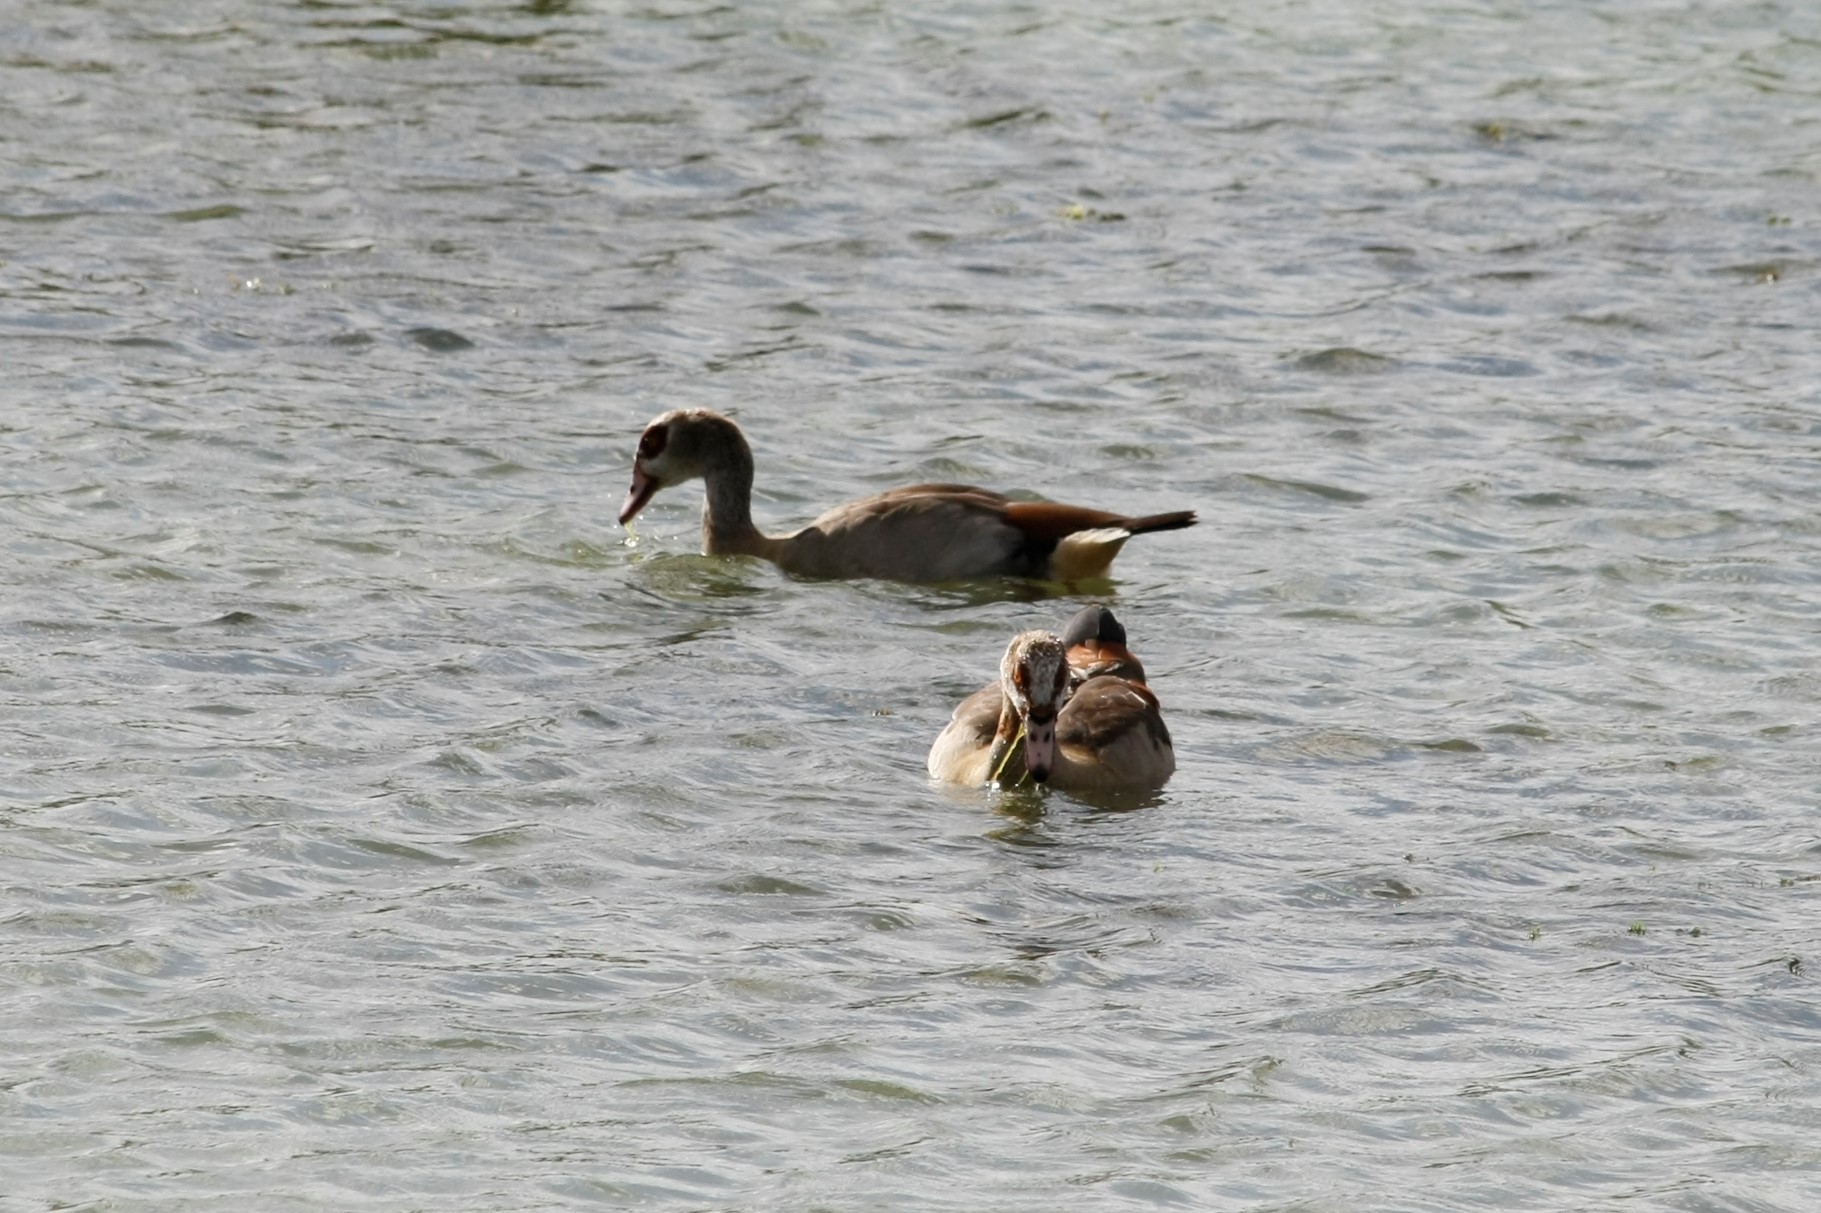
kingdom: Animalia
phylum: Chordata
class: Aves
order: Anseriformes
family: Anatidae
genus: Alopochen
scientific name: Alopochen aegyptiaca
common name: Egyptian goose
